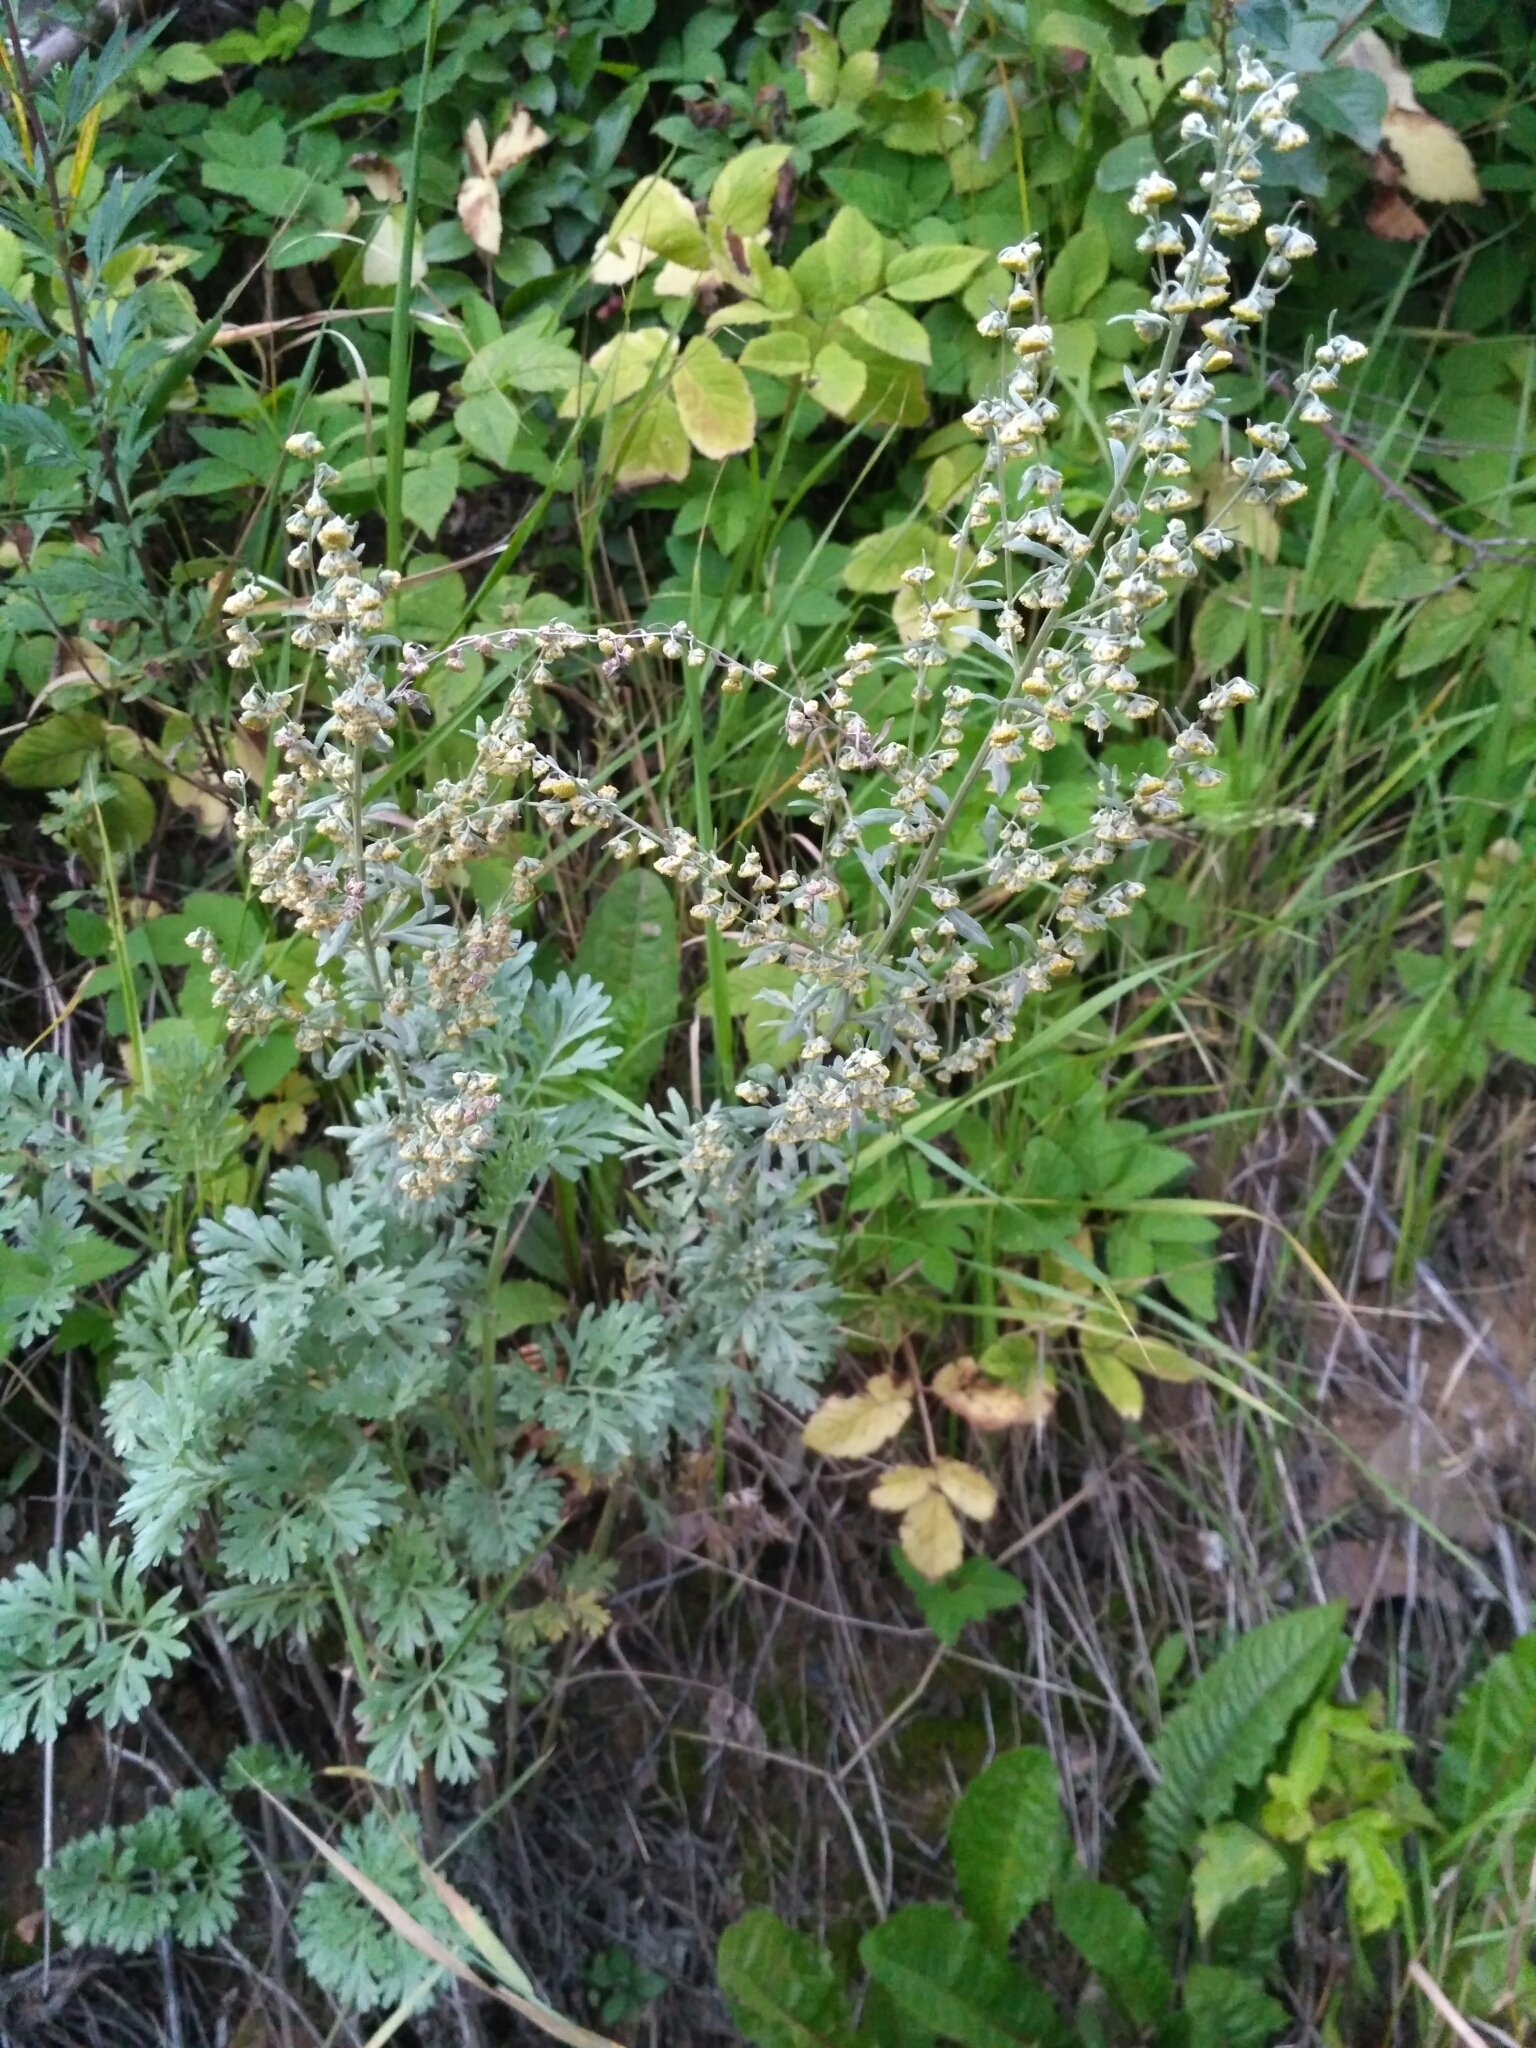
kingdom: Plantae
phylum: Tracheophyta
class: Magnoliopsida
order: Asterales
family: Asteraceae
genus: Artemisia
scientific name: Artemisia absinthium
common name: Wormwood
